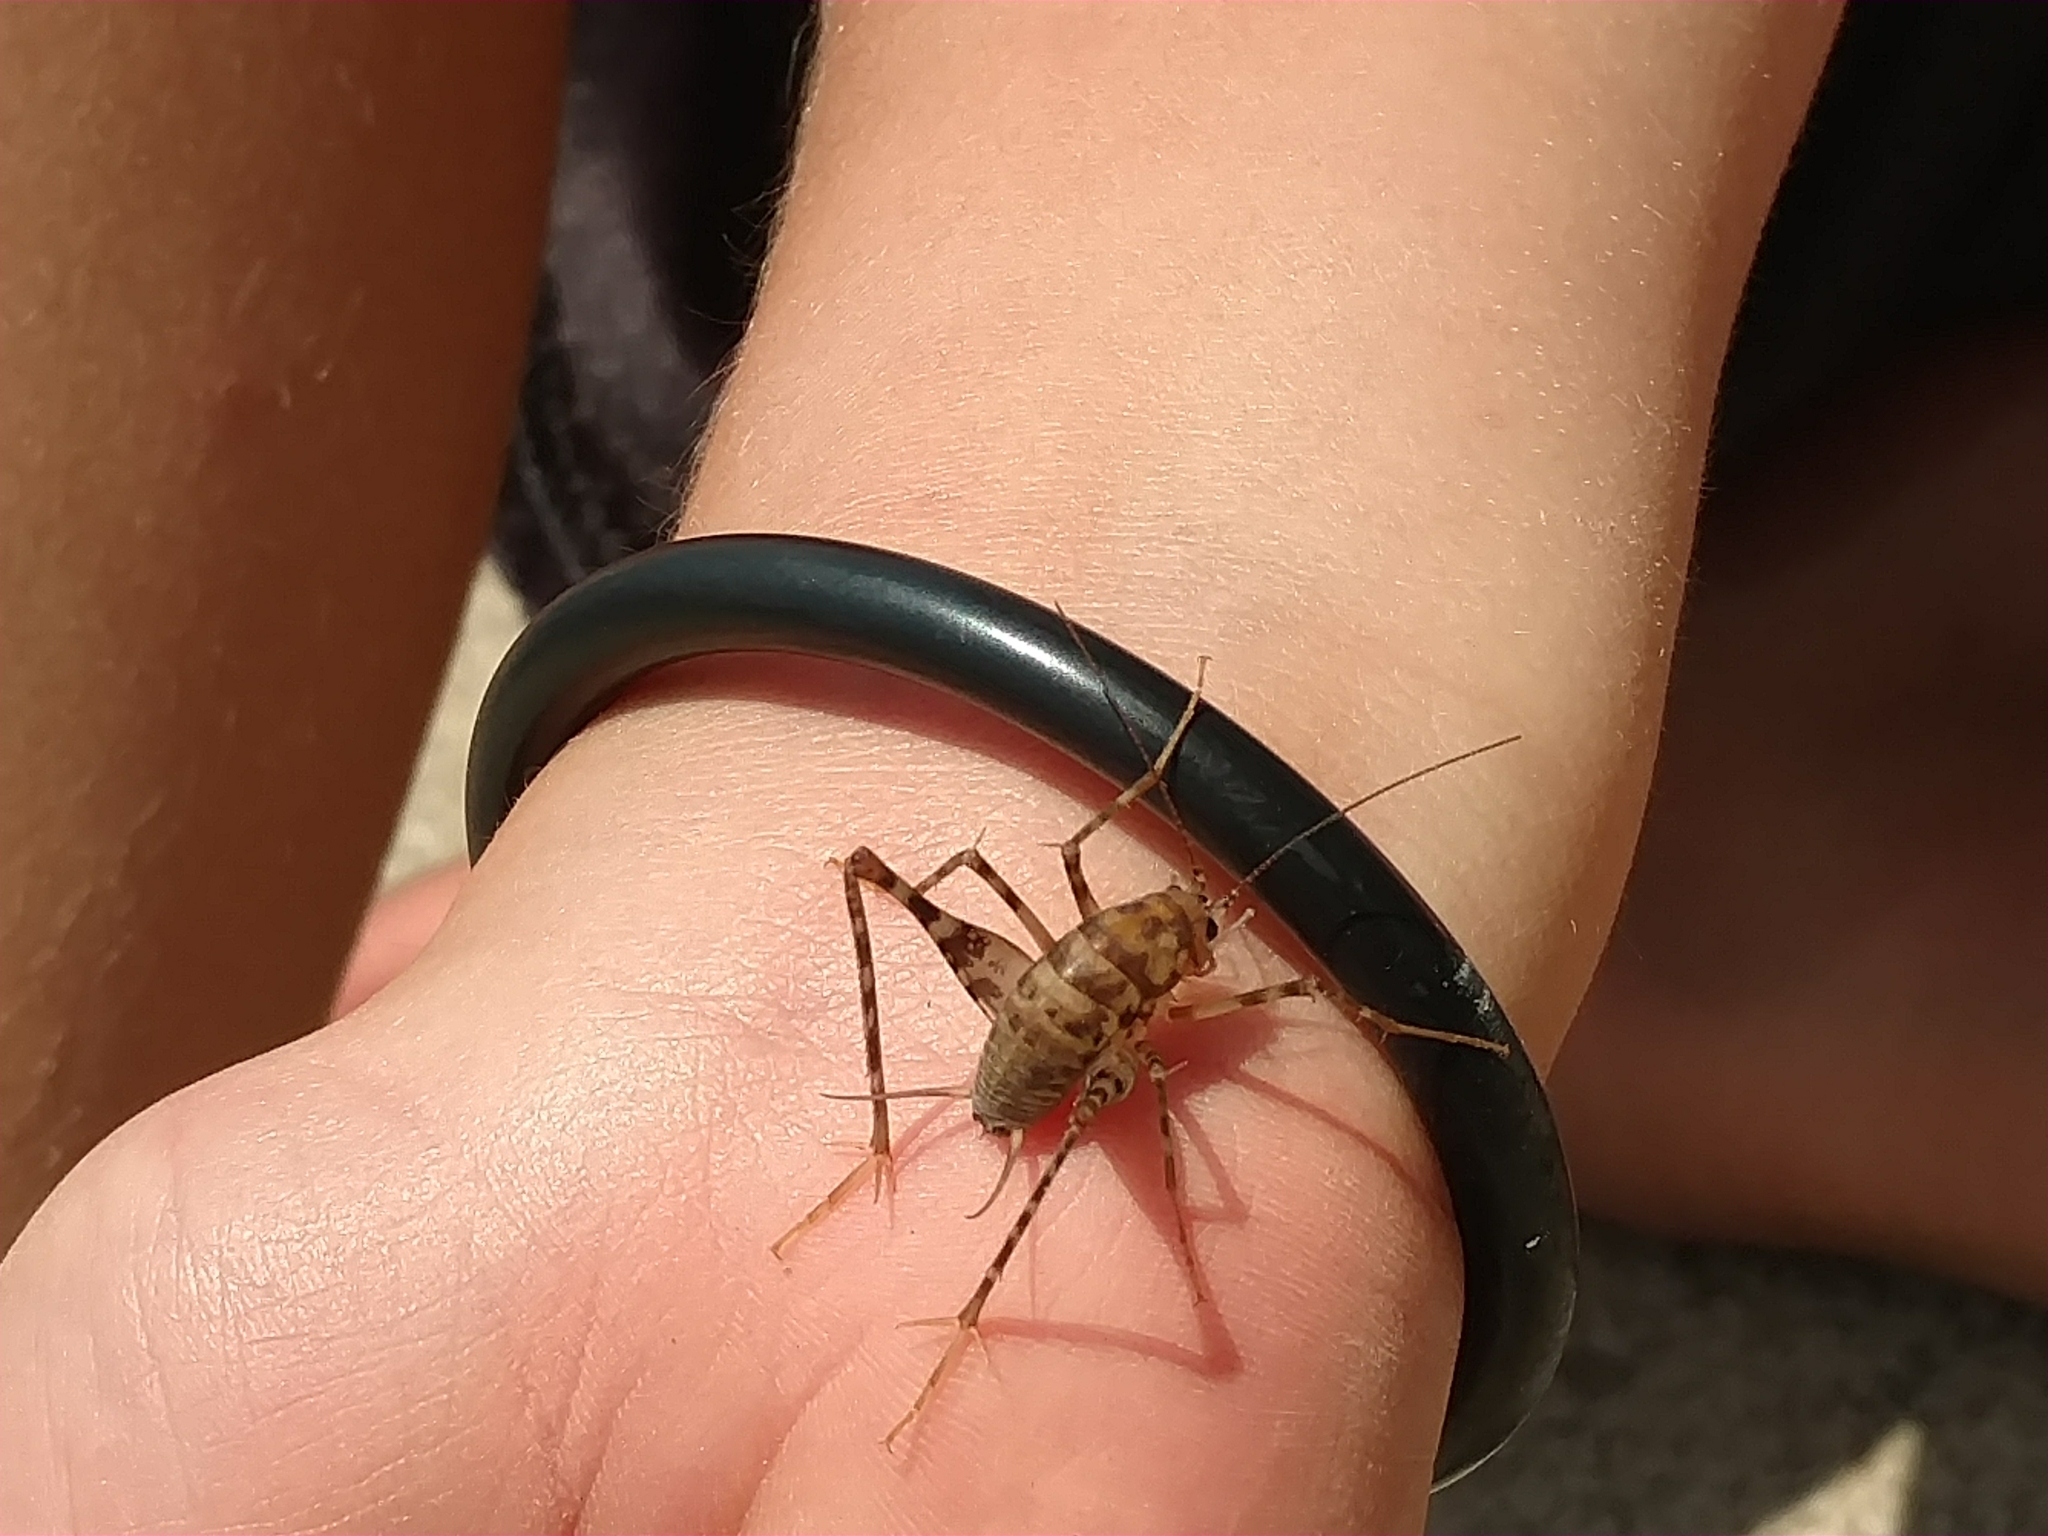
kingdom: Animalia
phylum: Arthropoda
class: Insecta
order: Orthoptera
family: Rhaphidophoridae
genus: Tachycines
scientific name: Tachycines asynamorus
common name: Greenhouse camel cricket
